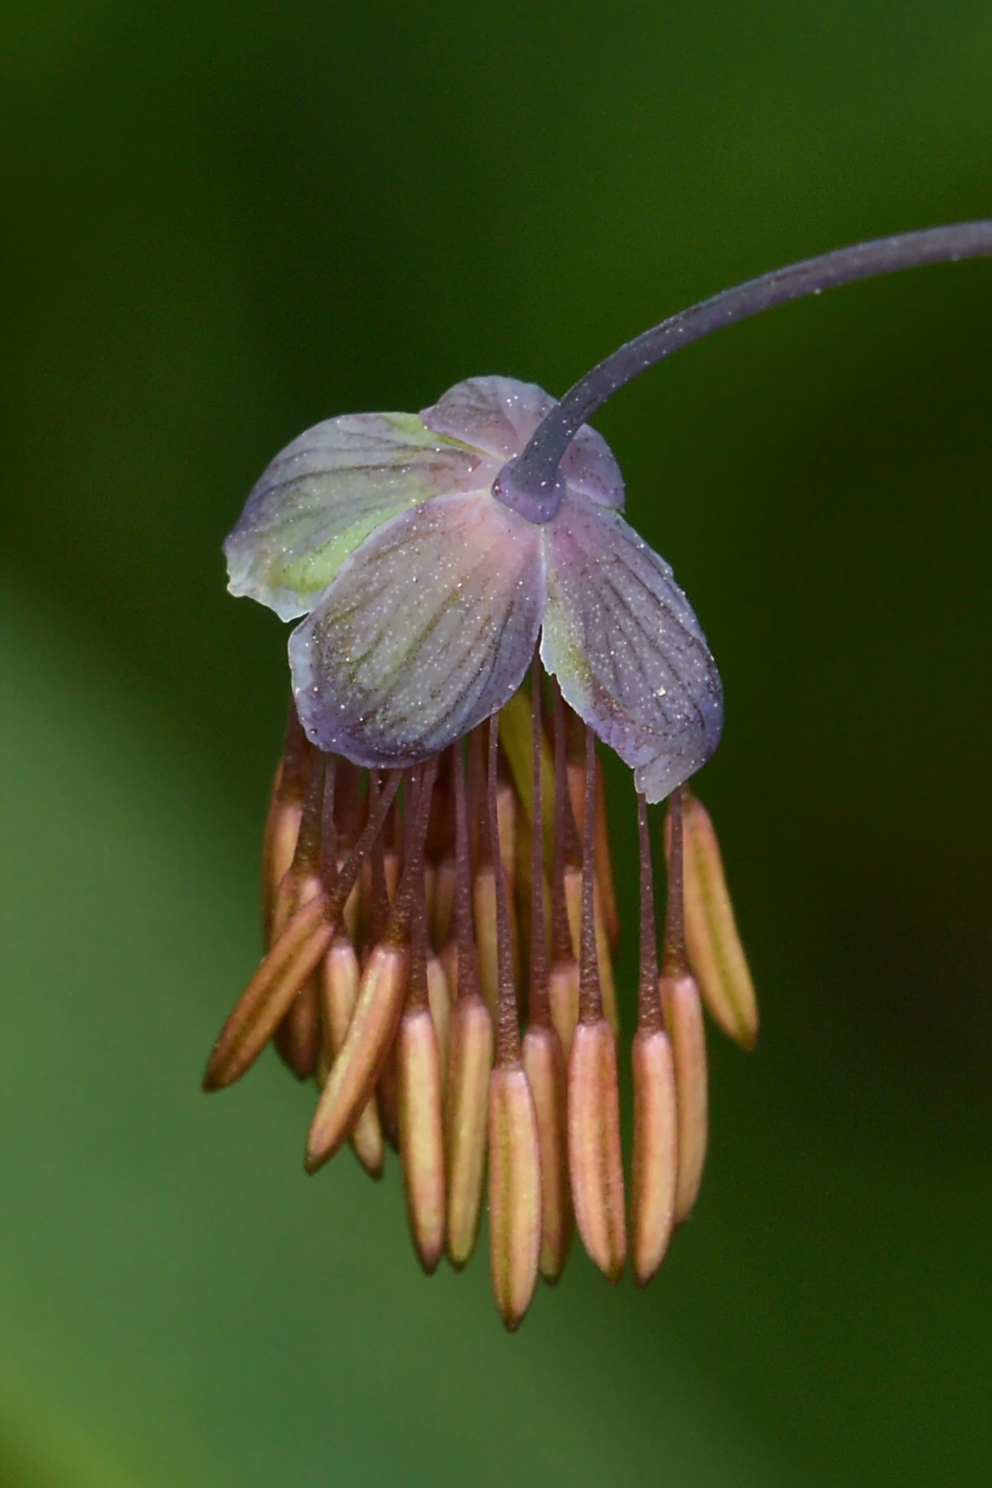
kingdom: Plantae
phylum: Tracheophyta
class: Magnoliopsida
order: Ranunculales
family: Ranunculaceae
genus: Thalictrum
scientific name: Thalictrum dioicum
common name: Early meadow-rue
